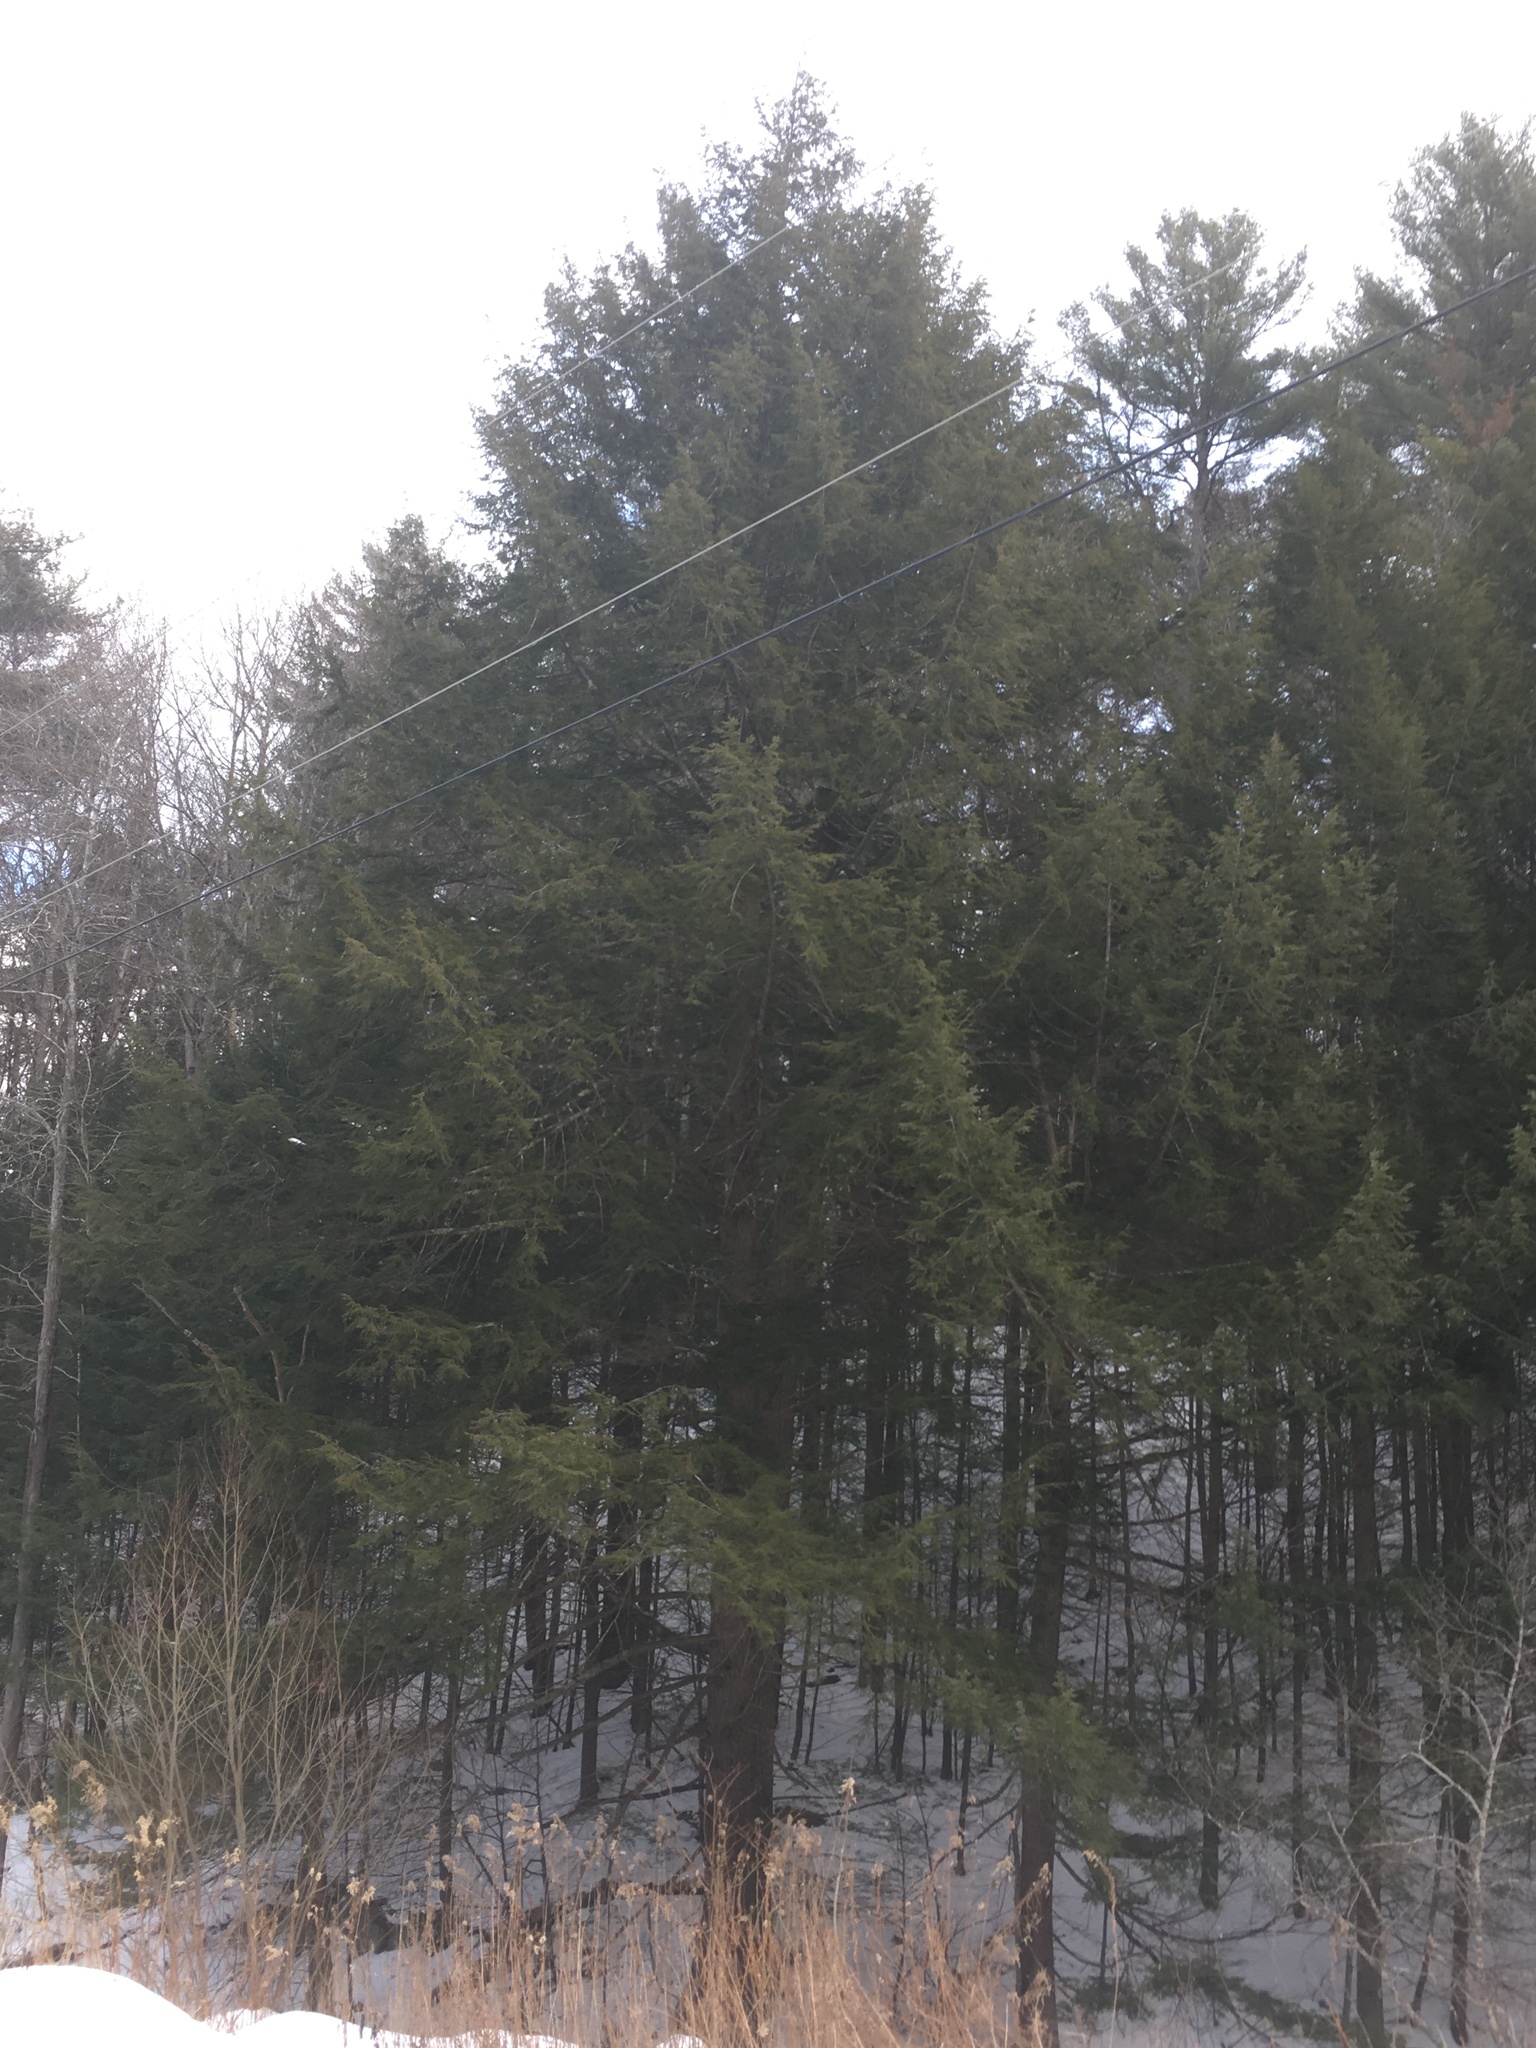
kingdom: Plantae
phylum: Tracheophyta
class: Pinopsida
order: Pinales
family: Pinaceae
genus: Tsuga
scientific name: Tsuga canadensis
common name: Eastern hemlock
